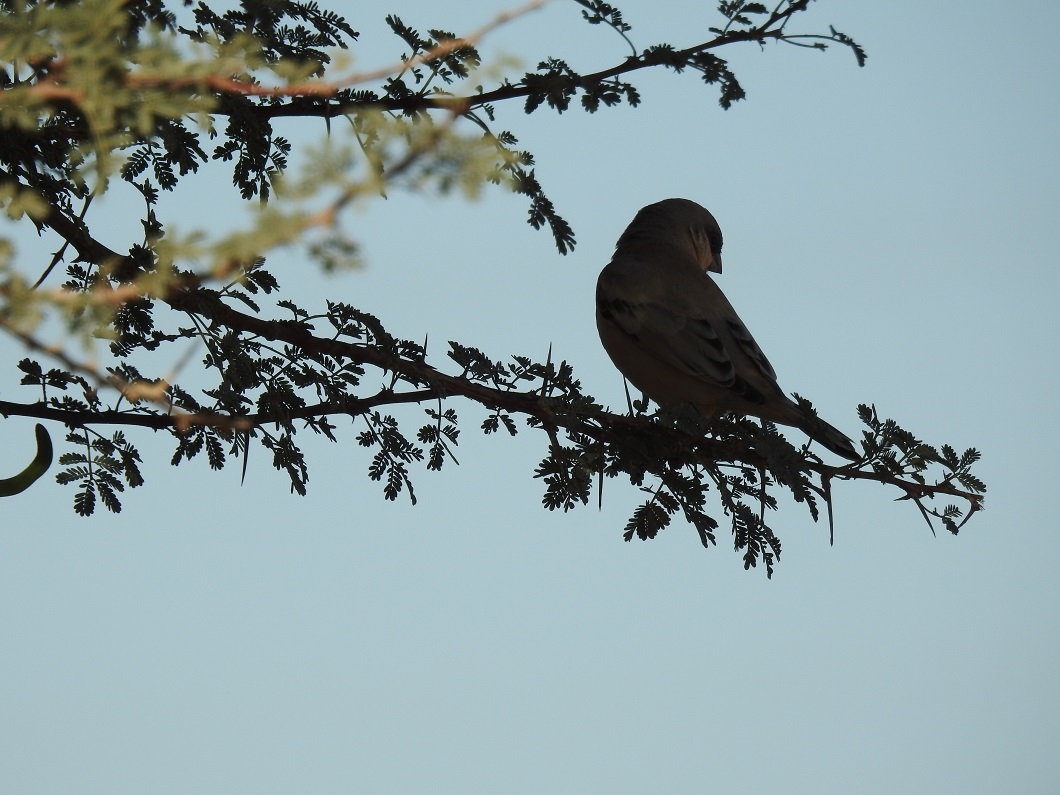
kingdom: Animalia
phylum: Chordata
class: Aves
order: Passeriformes
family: Passeridae
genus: Passer
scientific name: Passer simplex
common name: Desert sparrow
